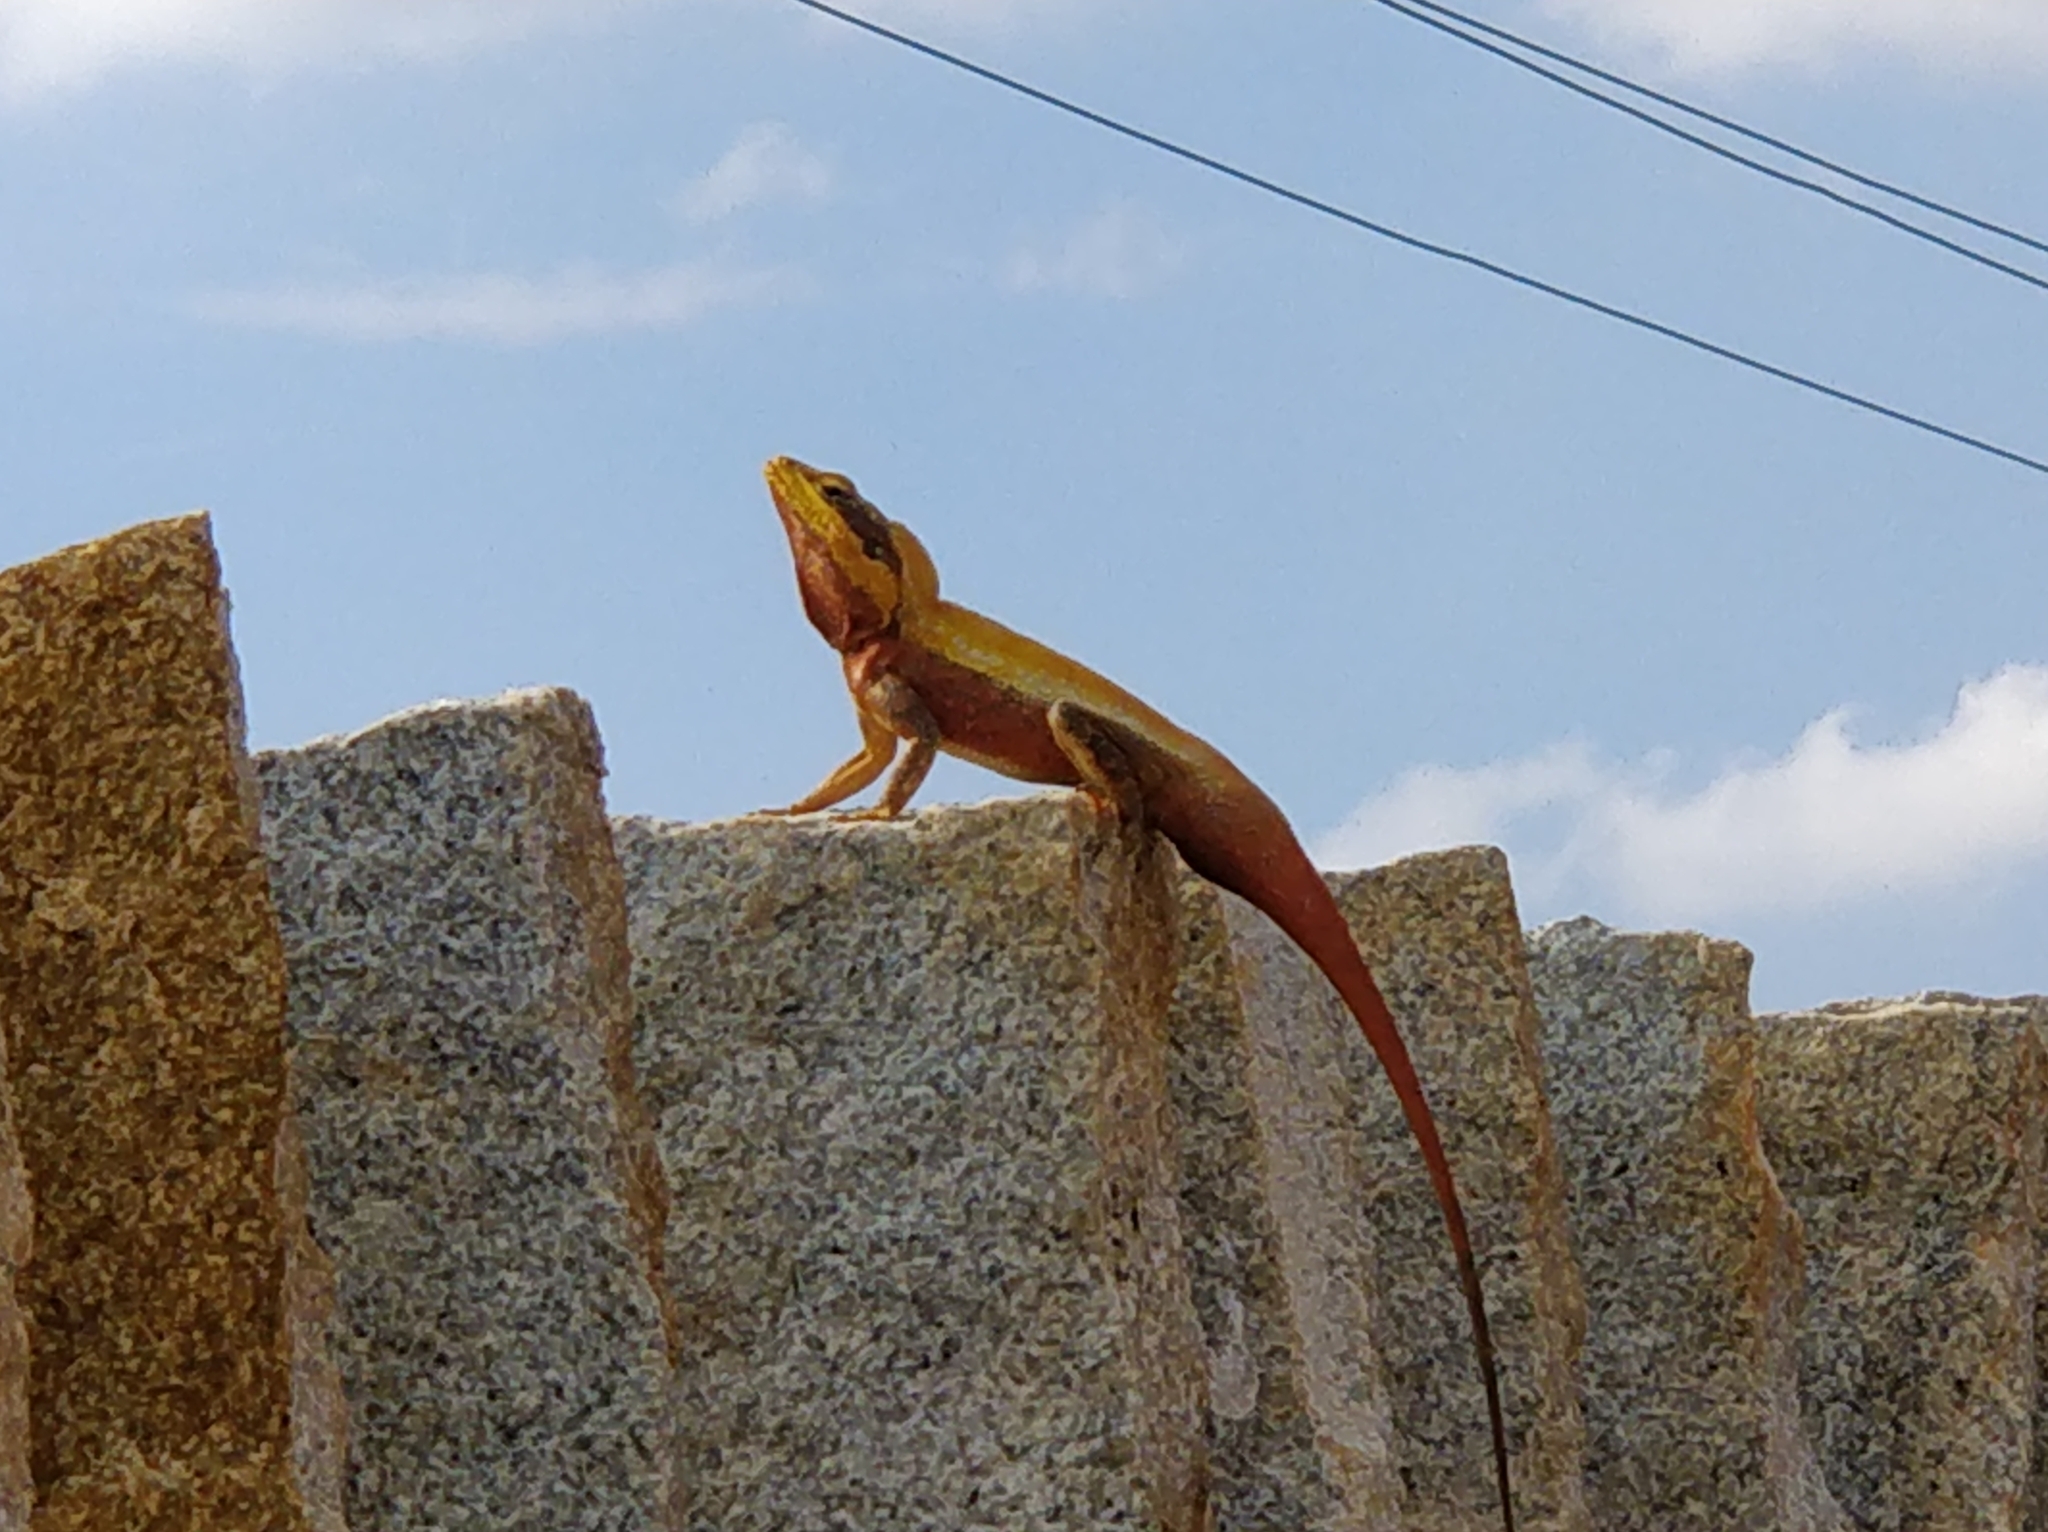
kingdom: Animalia
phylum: Chordata
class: Squamata
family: Agamidae
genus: Psammophilus
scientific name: Psammophilus dorsalis
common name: South indian rock agama
